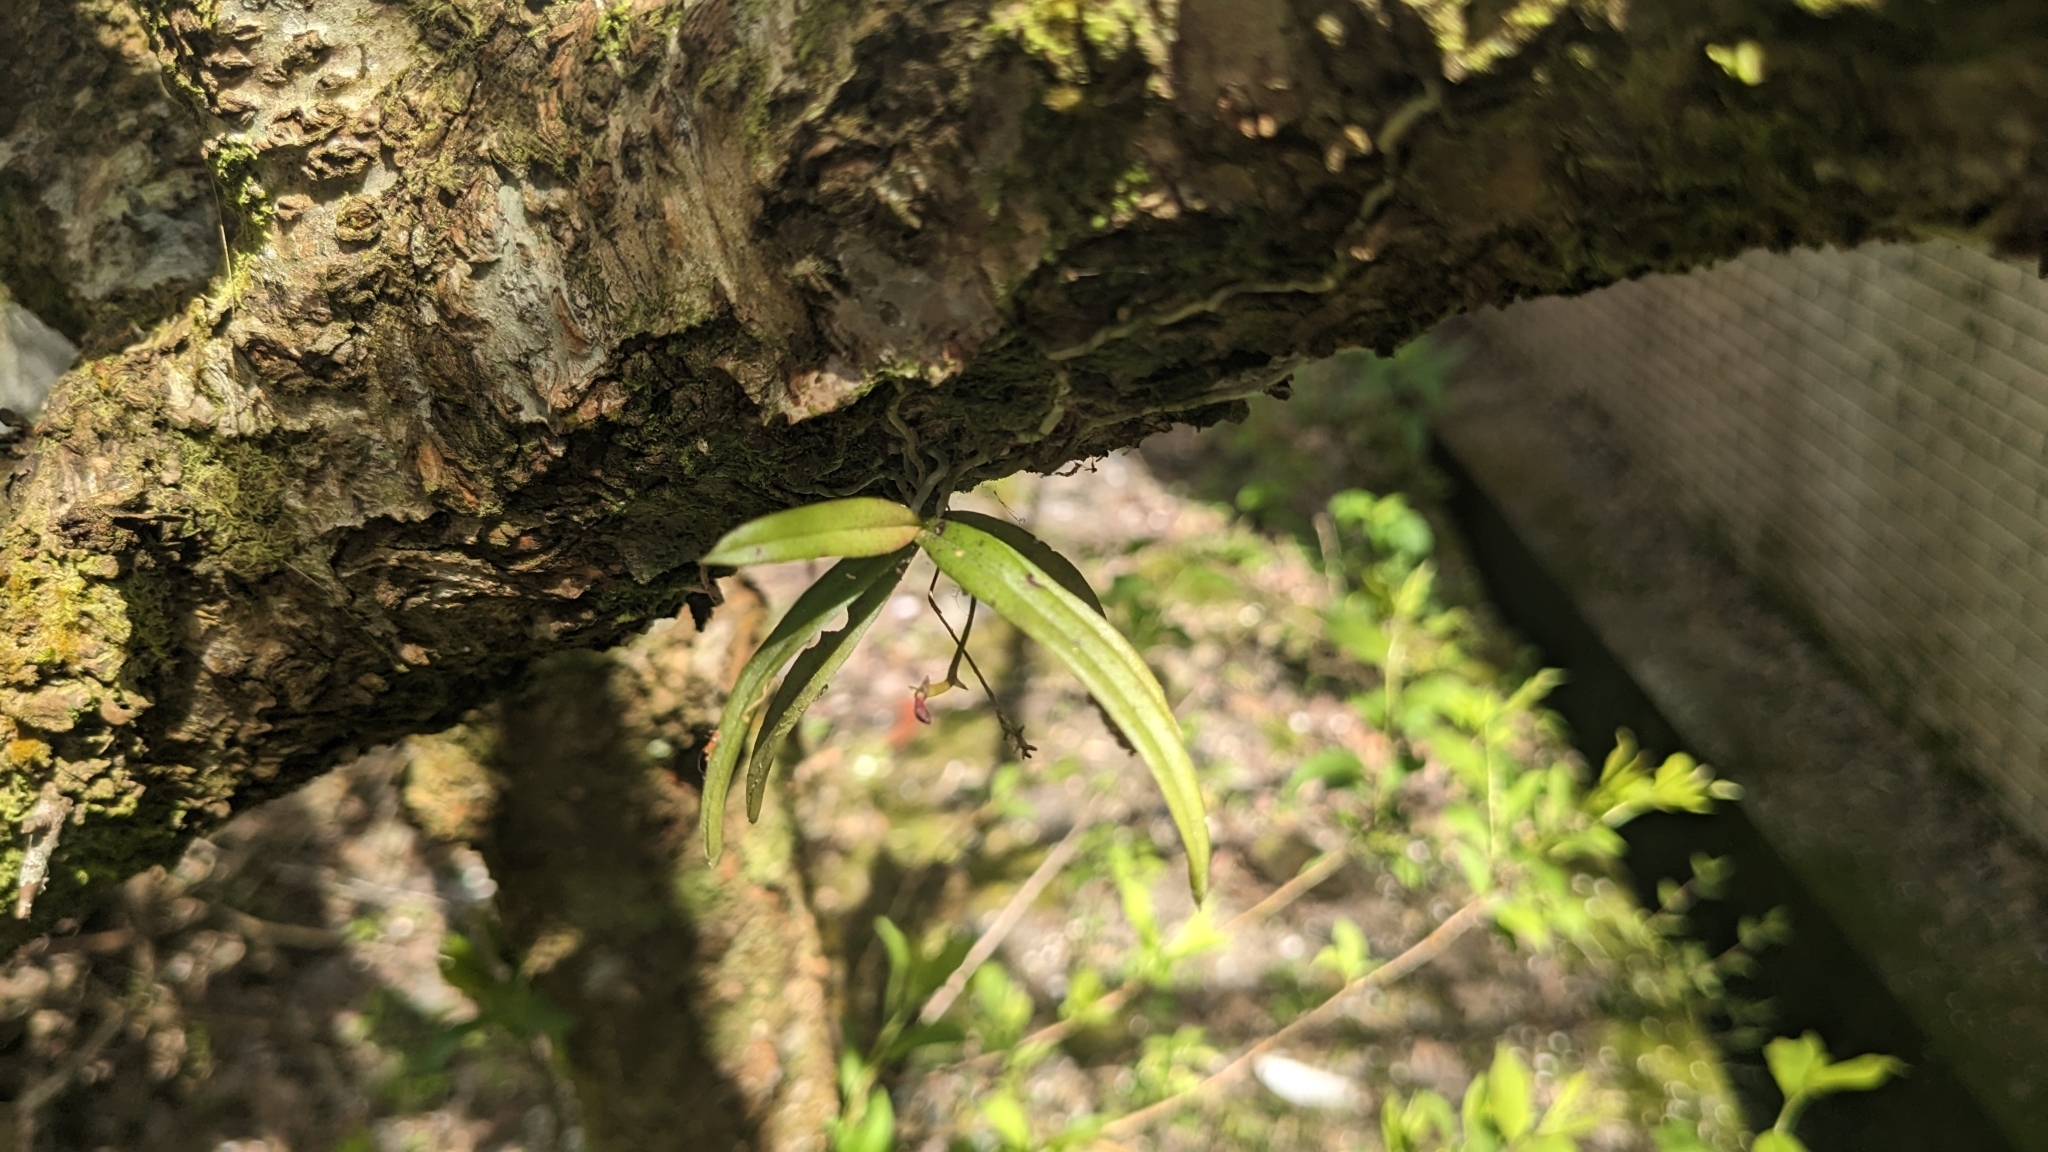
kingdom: Plantae
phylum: Tracheophyta
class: Liliopsida
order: Asparagales
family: Orchidaceae
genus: Thrixspermum
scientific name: Thrixspermum formosanum
